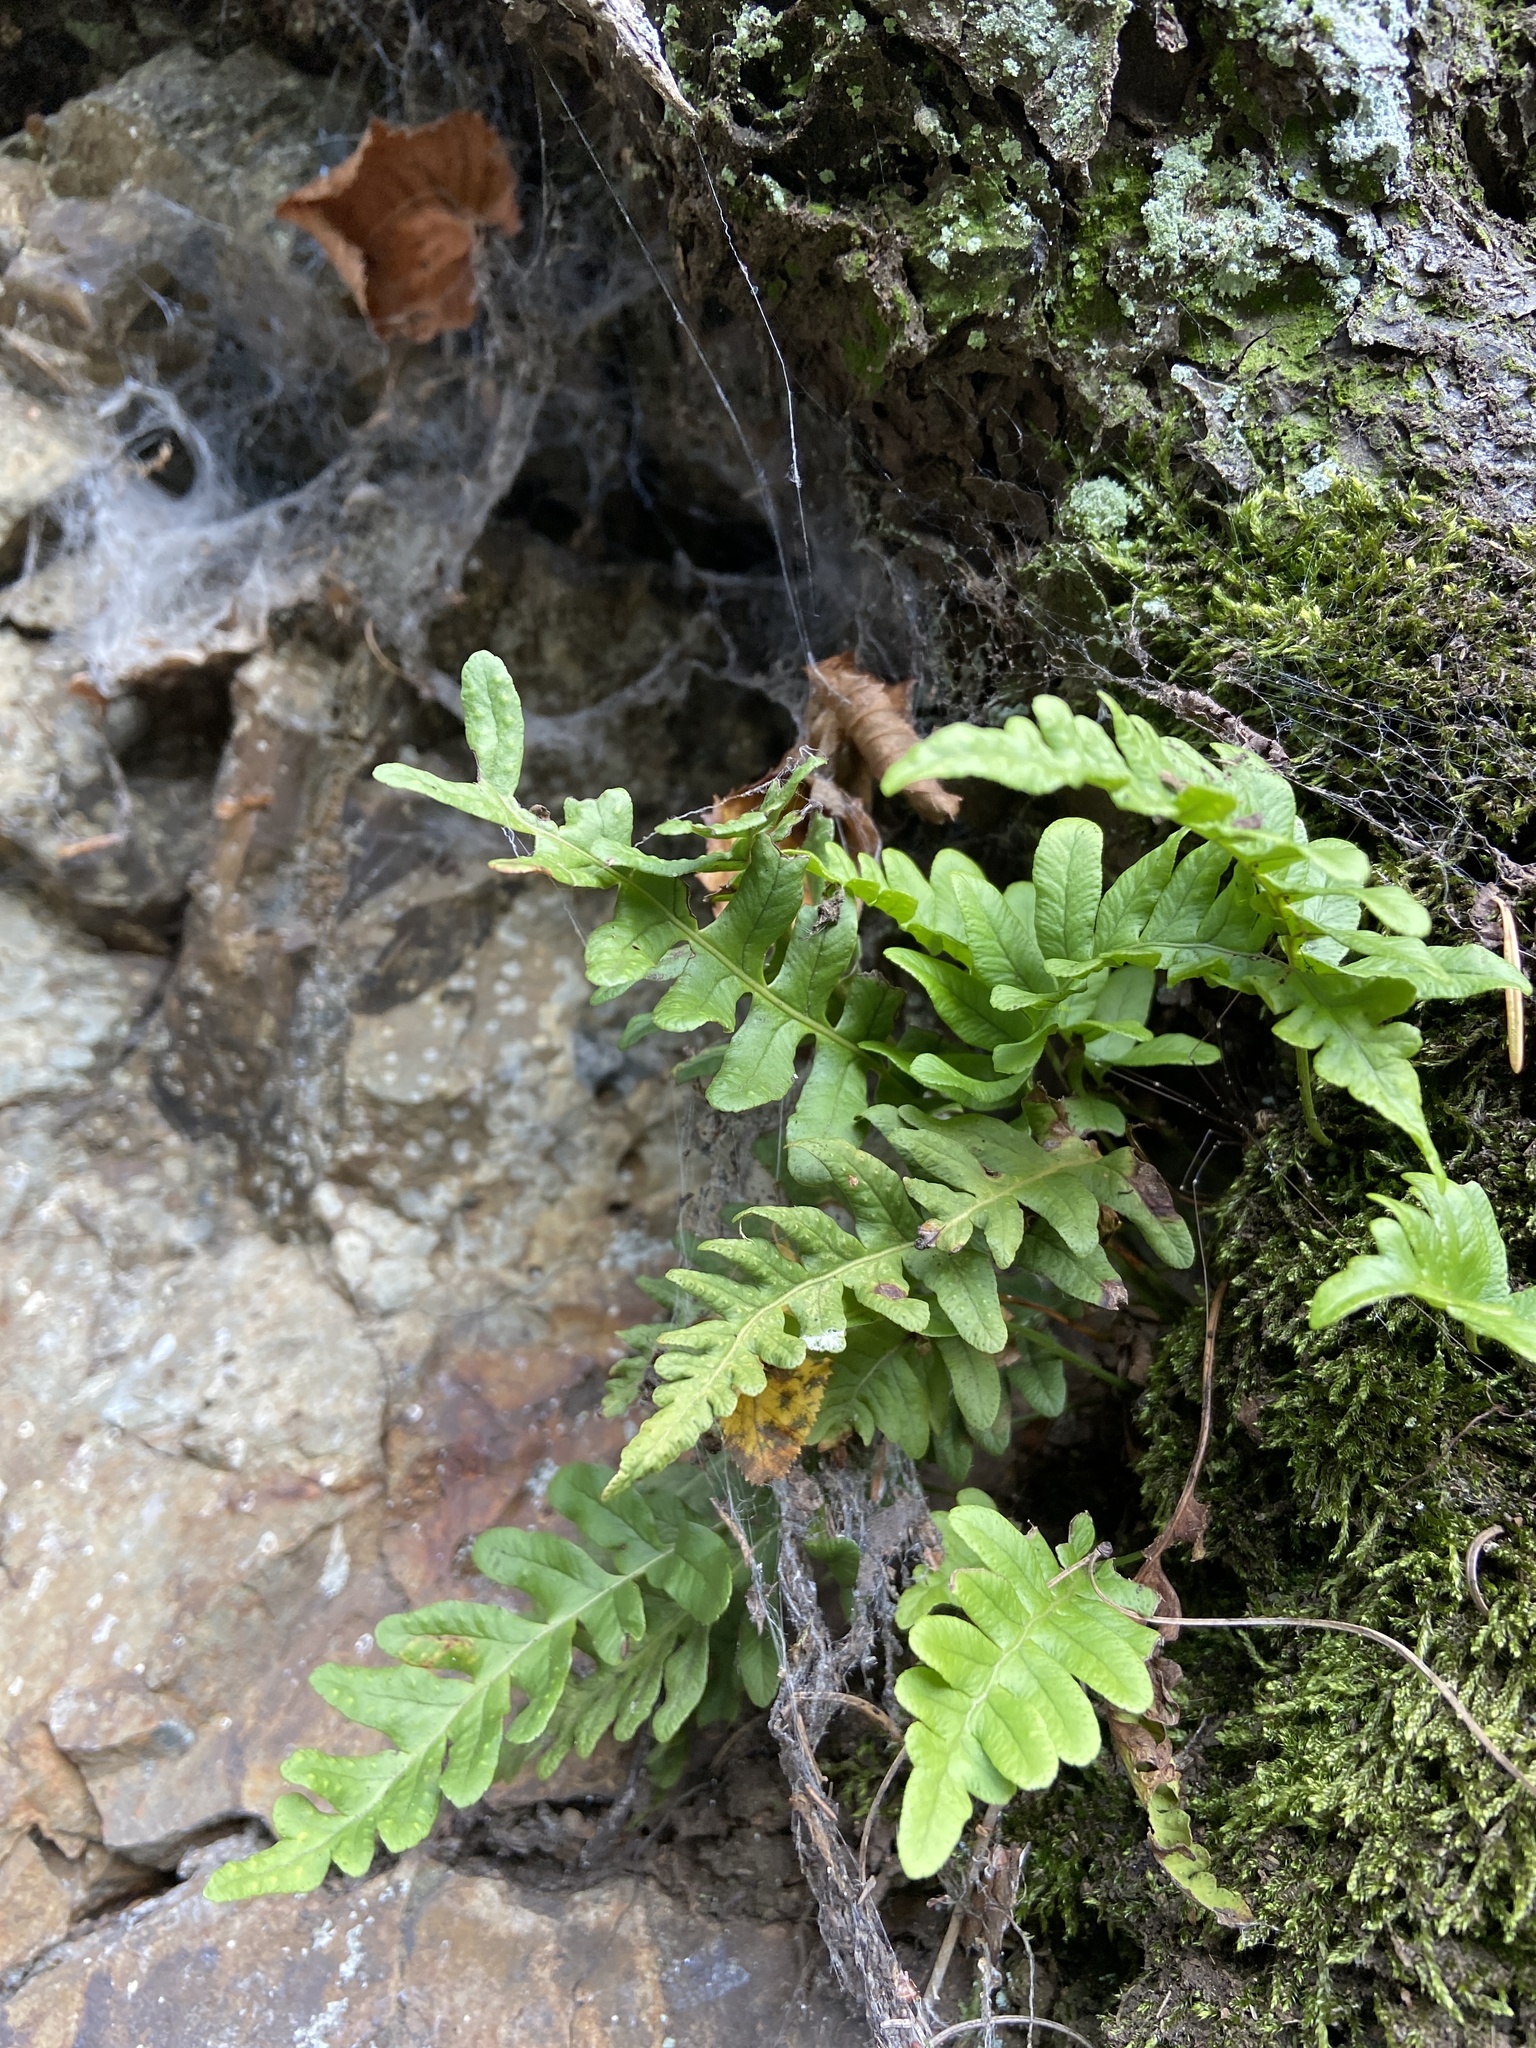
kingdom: Plantae
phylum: Tracheophyta
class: Polypodiopsida
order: Polypodiales
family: Polypodiaceae
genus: Polypodium
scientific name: Polypodium vulgare
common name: Common polypody
